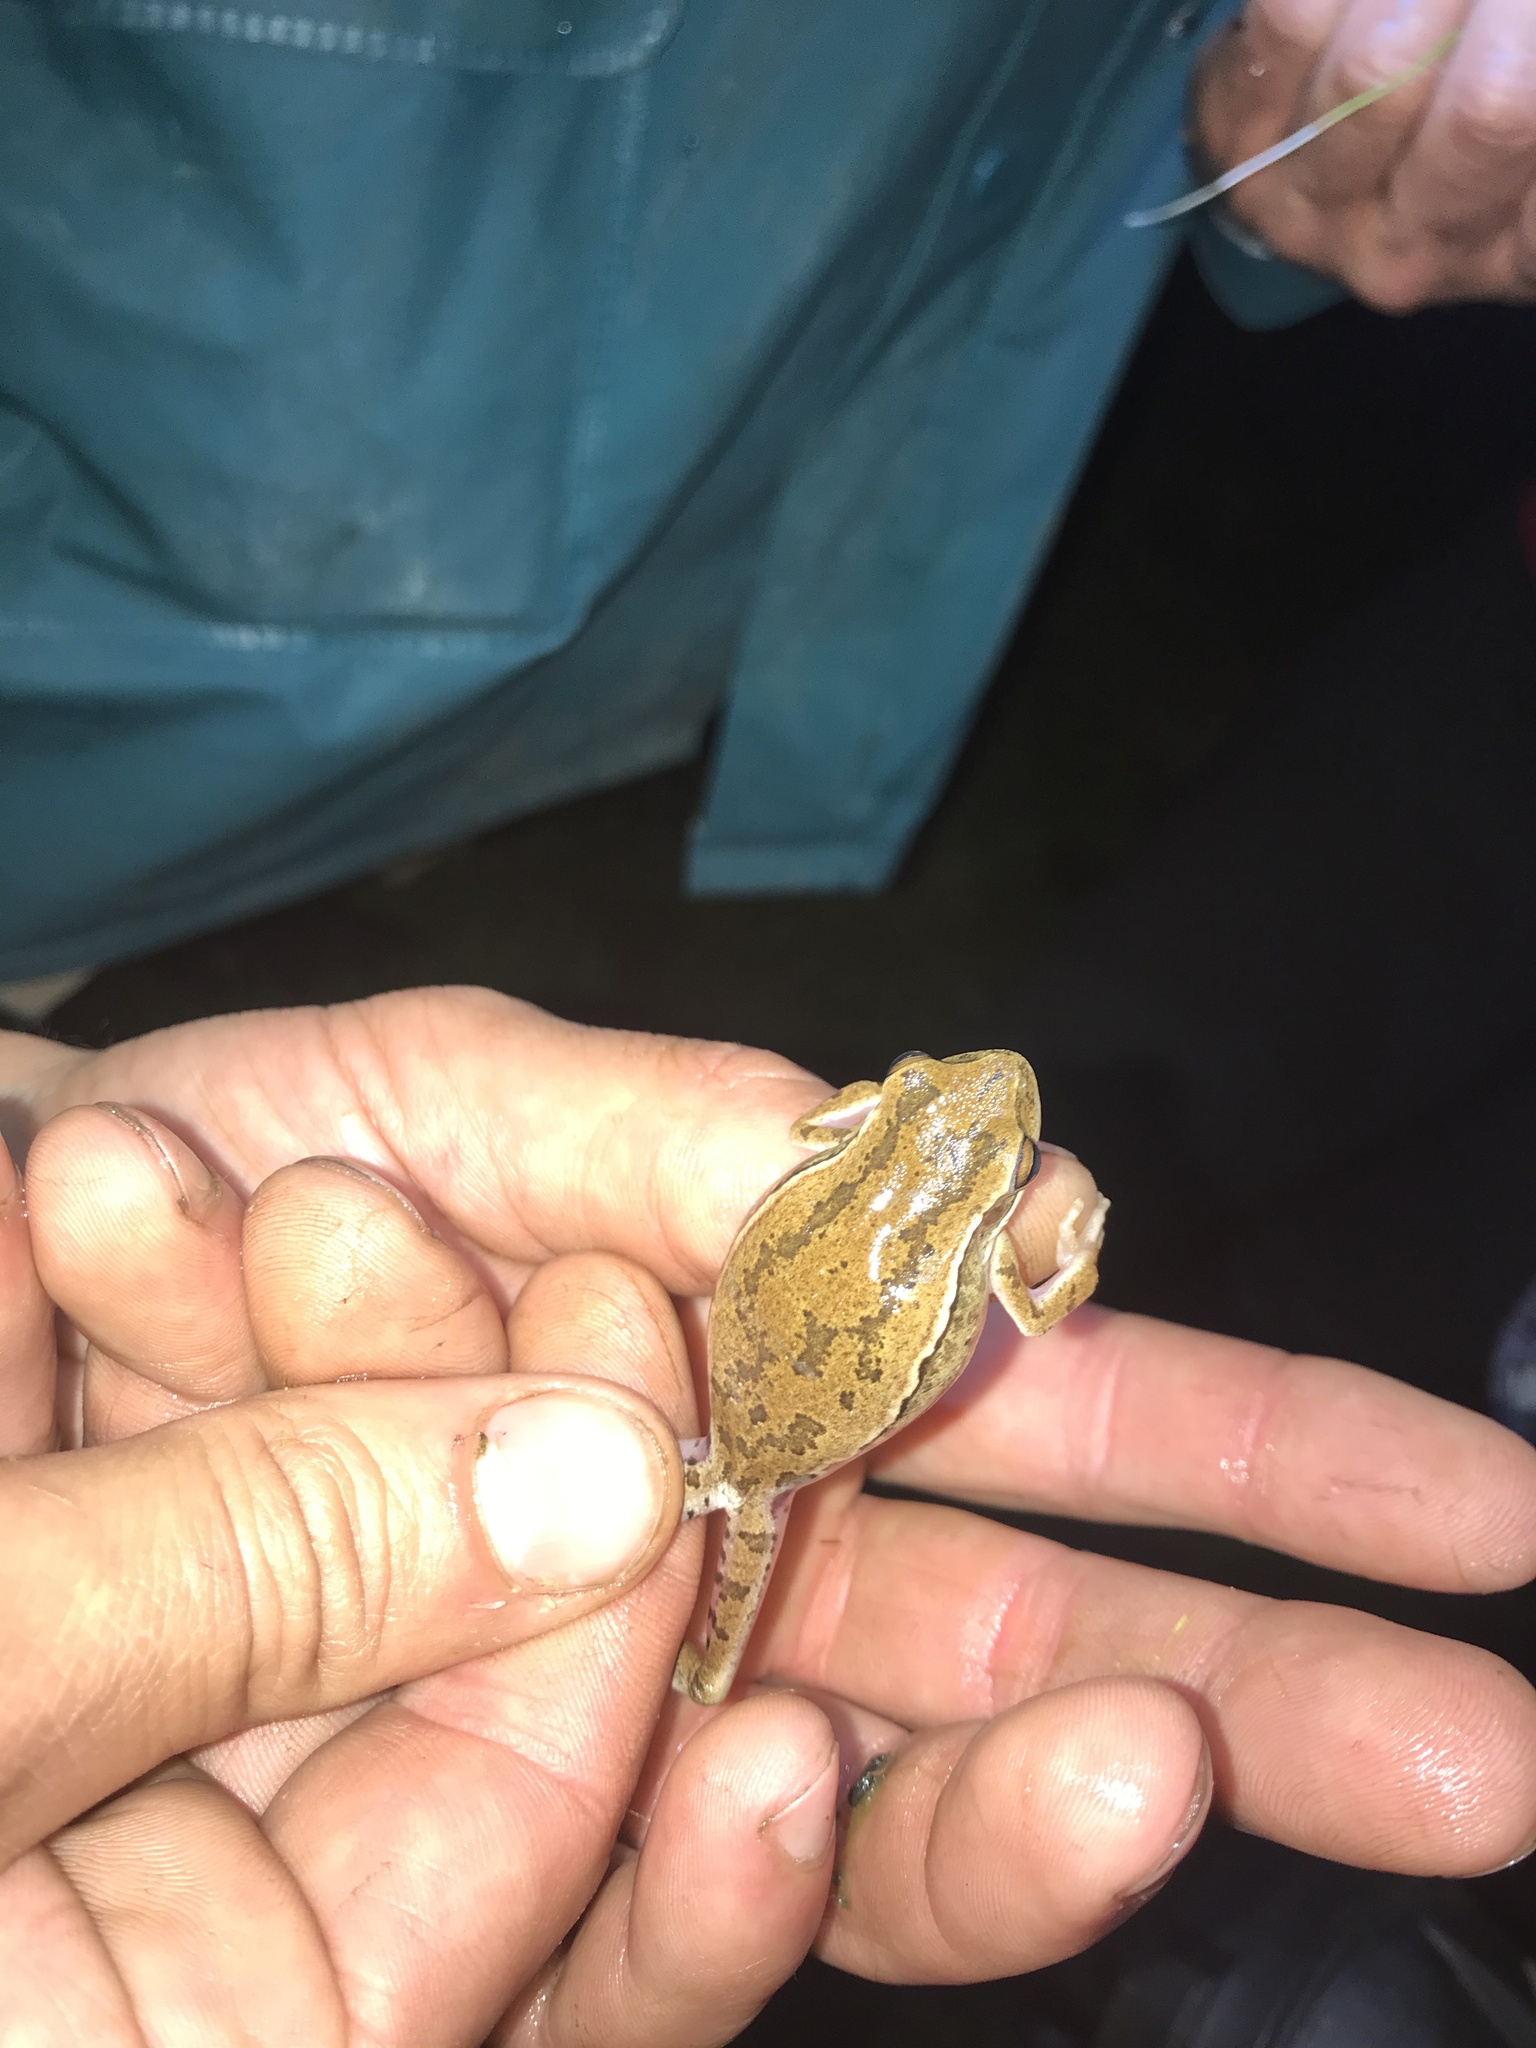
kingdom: Animalia
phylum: Chordata
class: Amphibia
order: Anura
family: Hylidae
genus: Boana
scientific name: Boana pulchella
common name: Montevideo treefrog
